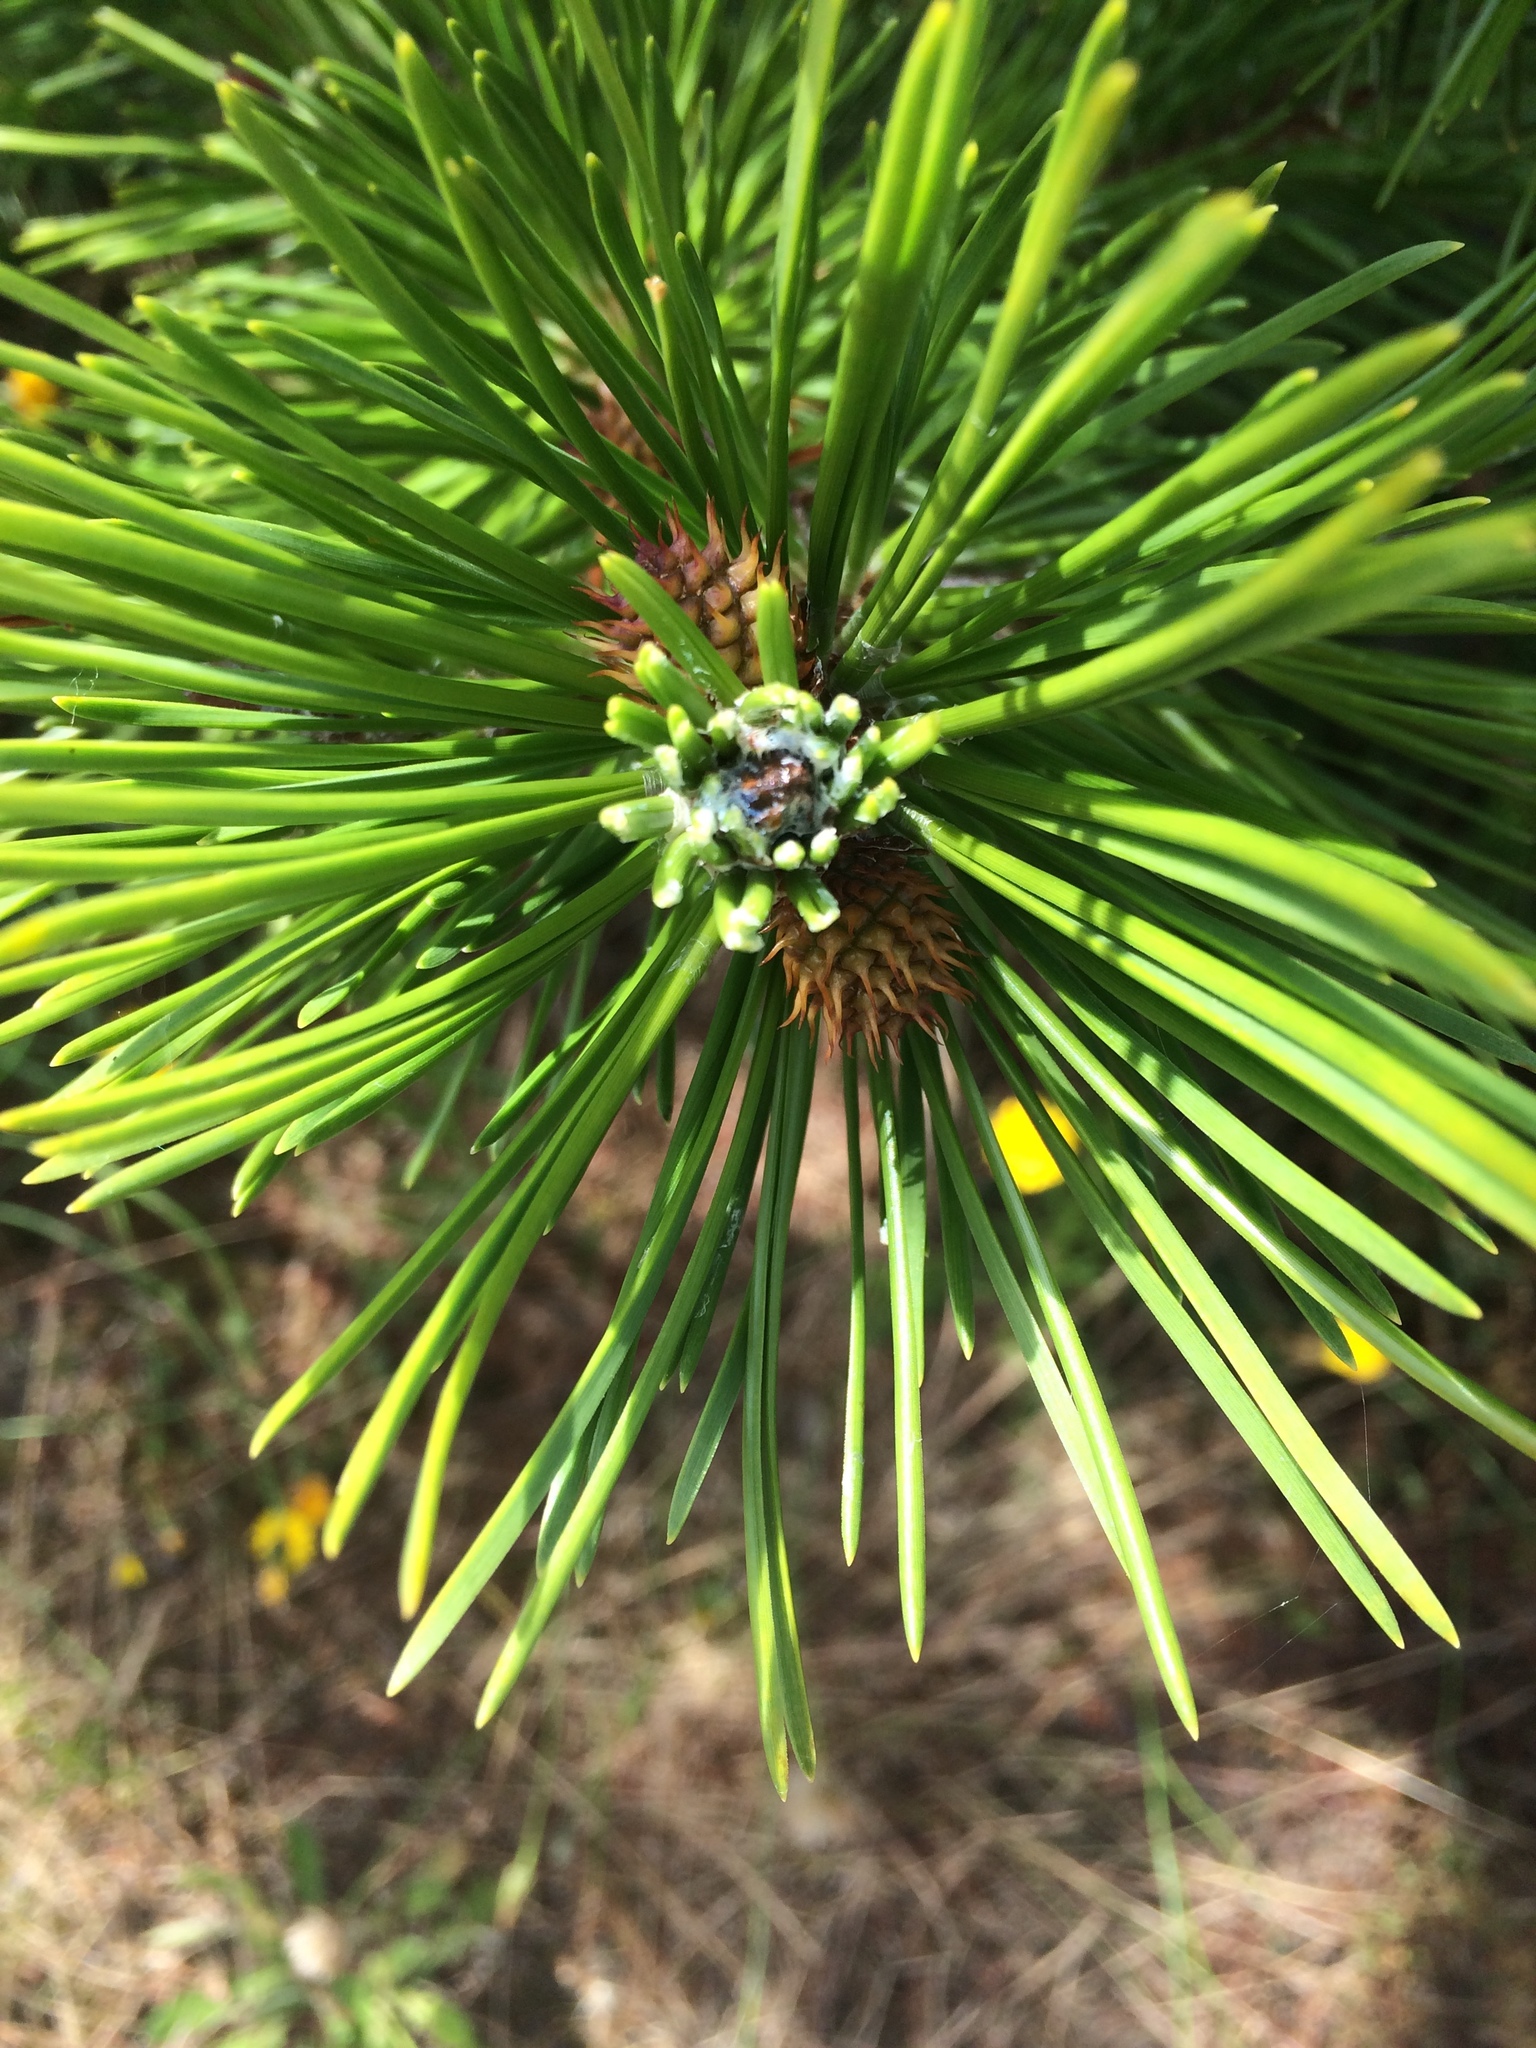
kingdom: Plantae
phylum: Tracheophyta
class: Pinopsida
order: Pinales
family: Pinaceae
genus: Pinus
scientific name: Pinus contorta
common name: Lodgepole pine
